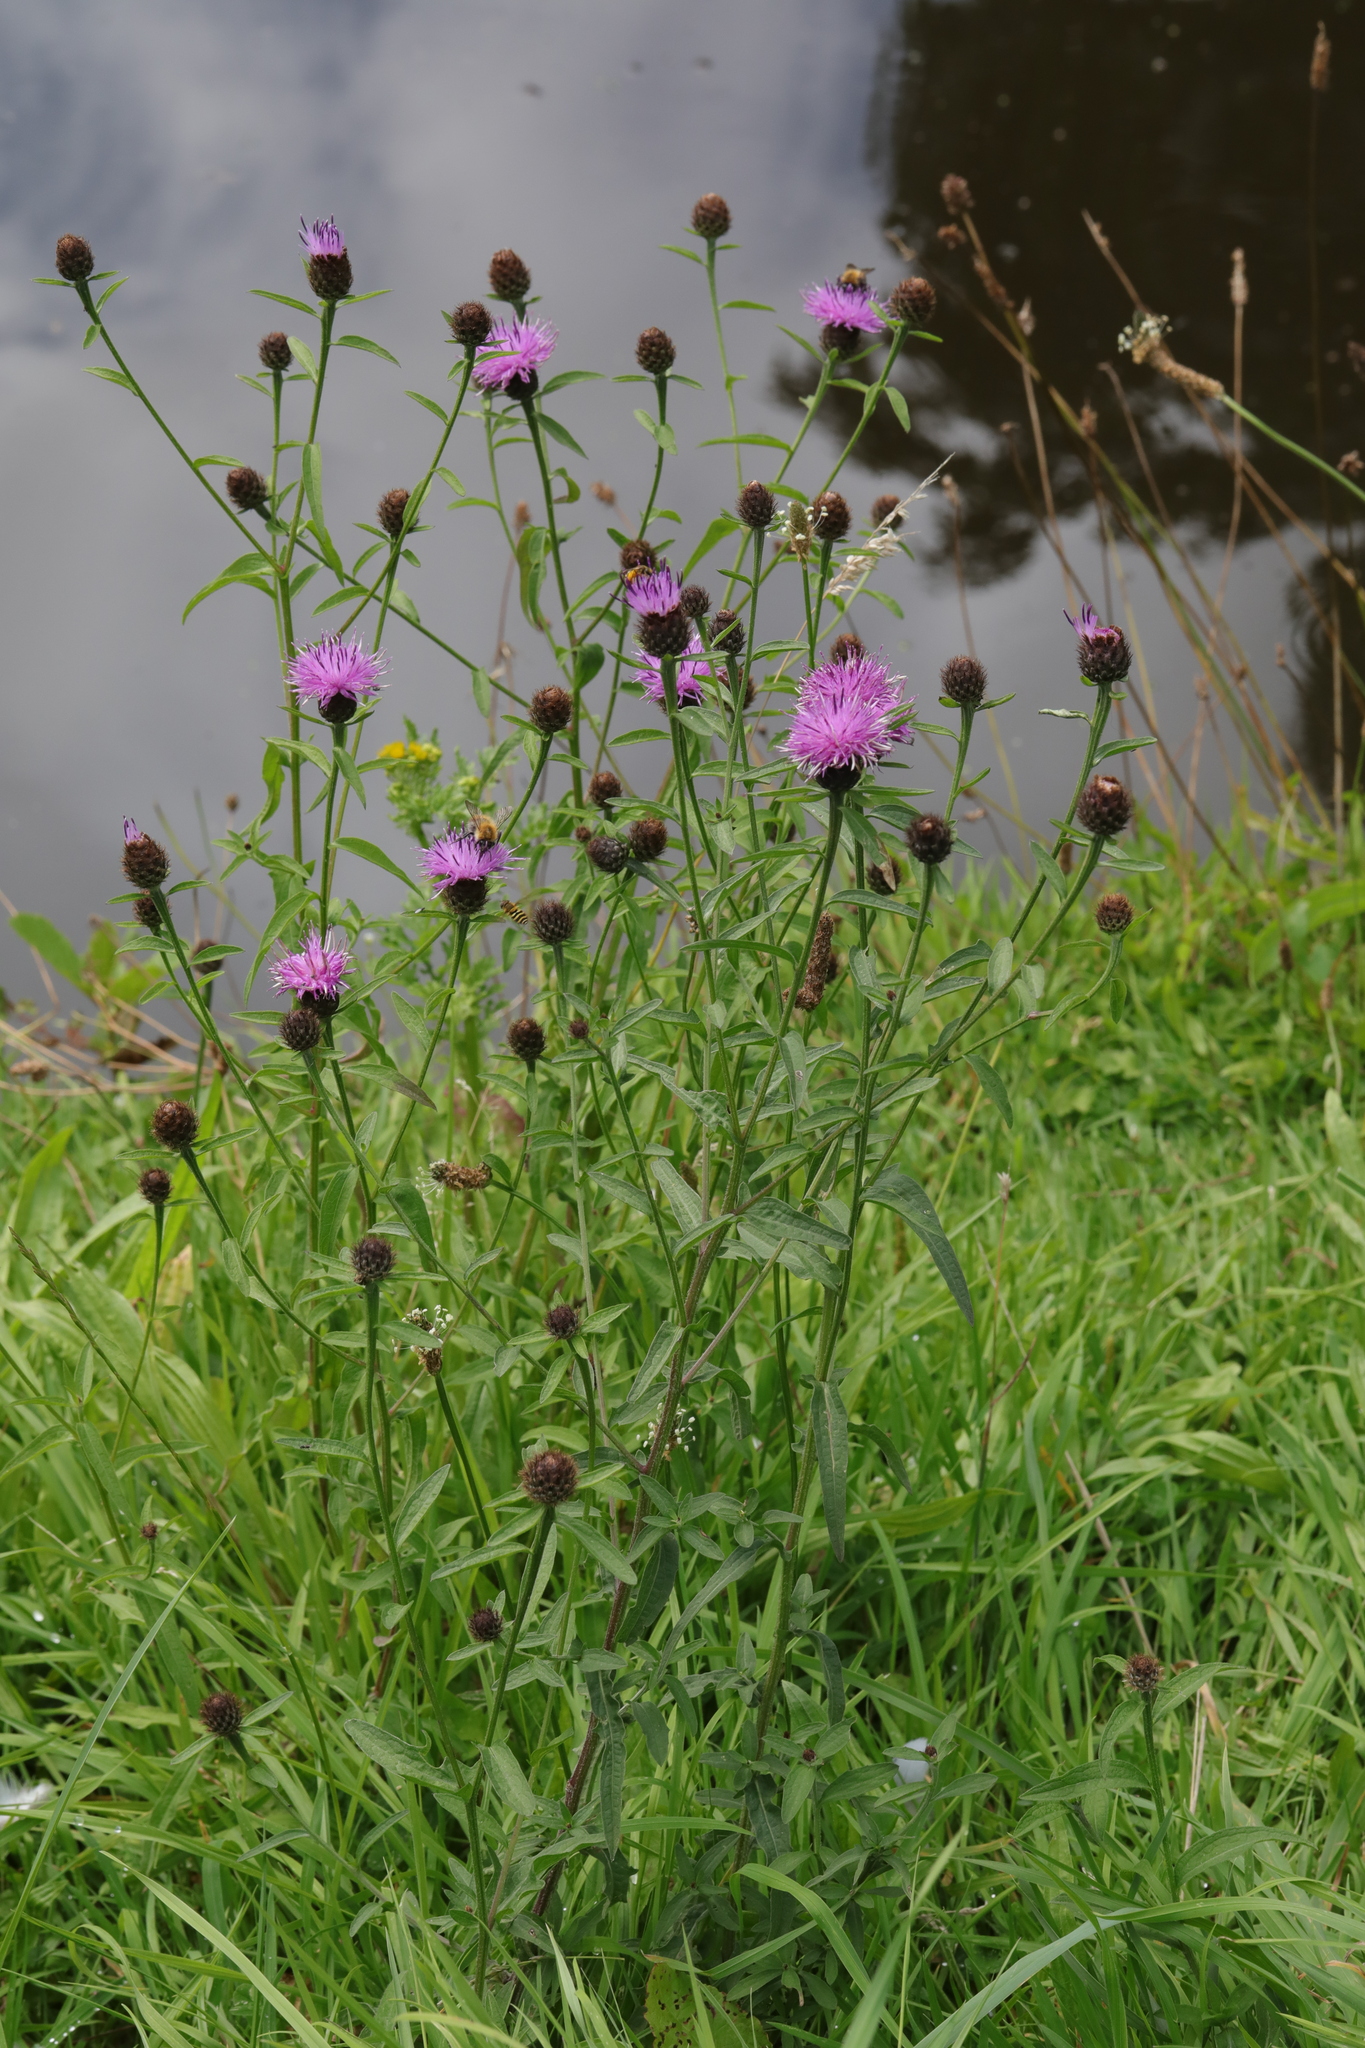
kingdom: Plantae
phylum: Tracheophyta
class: Magnoliopsida
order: Asterales
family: Asteraceae
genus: Centaurea
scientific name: Centaurea nigra
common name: Lesser knapweed
